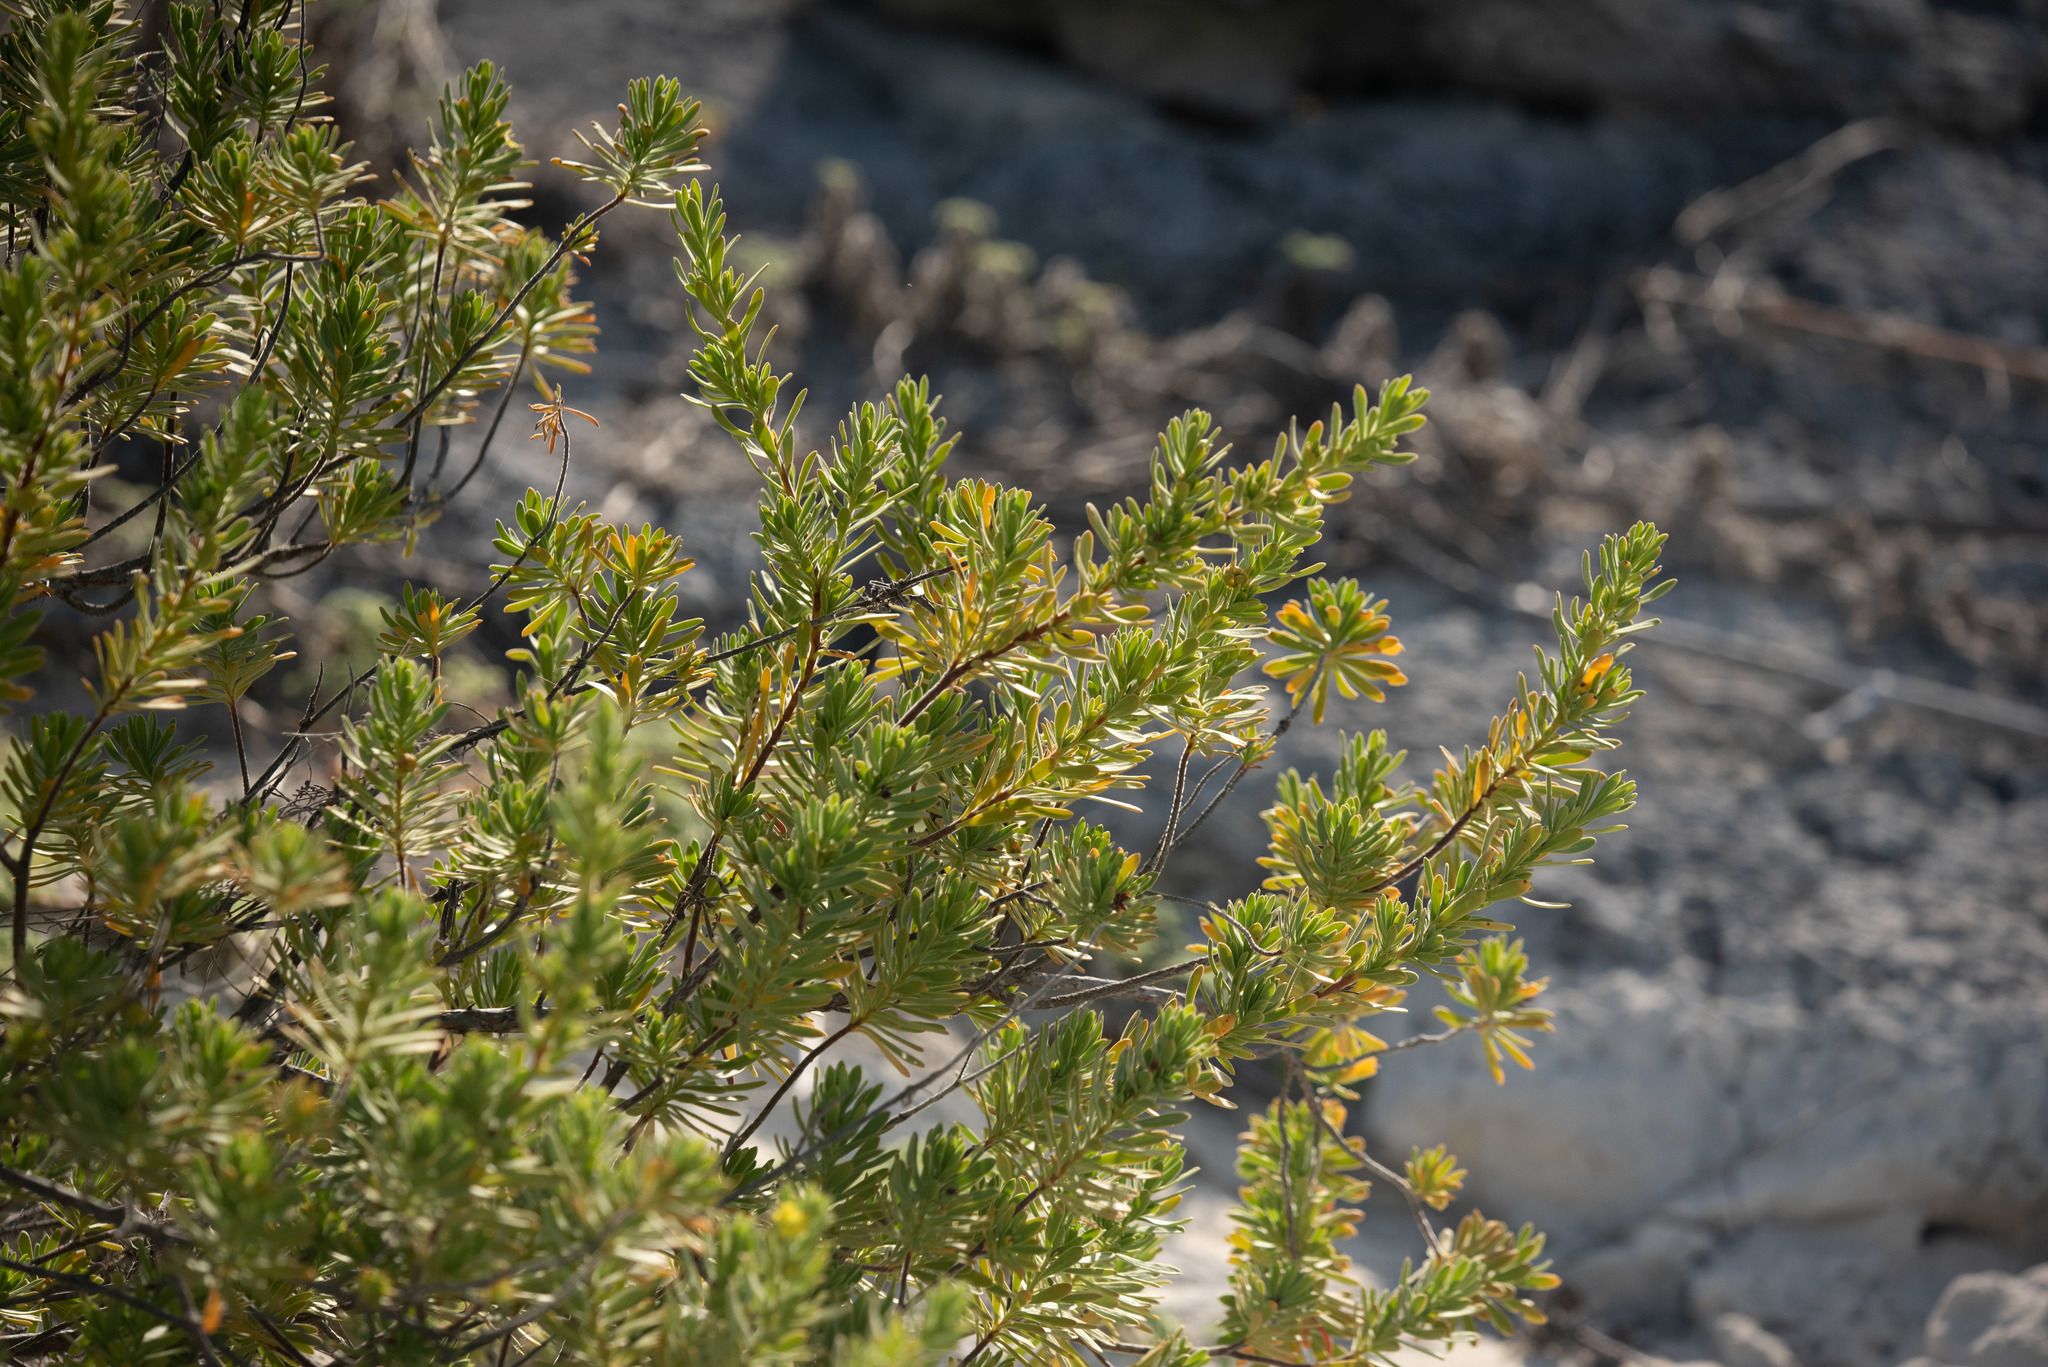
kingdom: Plantae
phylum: Tracheophyta
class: Magnoliopsida
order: Fabales
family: Surianaceae
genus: Suriana
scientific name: Suriana maritima
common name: Bay-cedar
